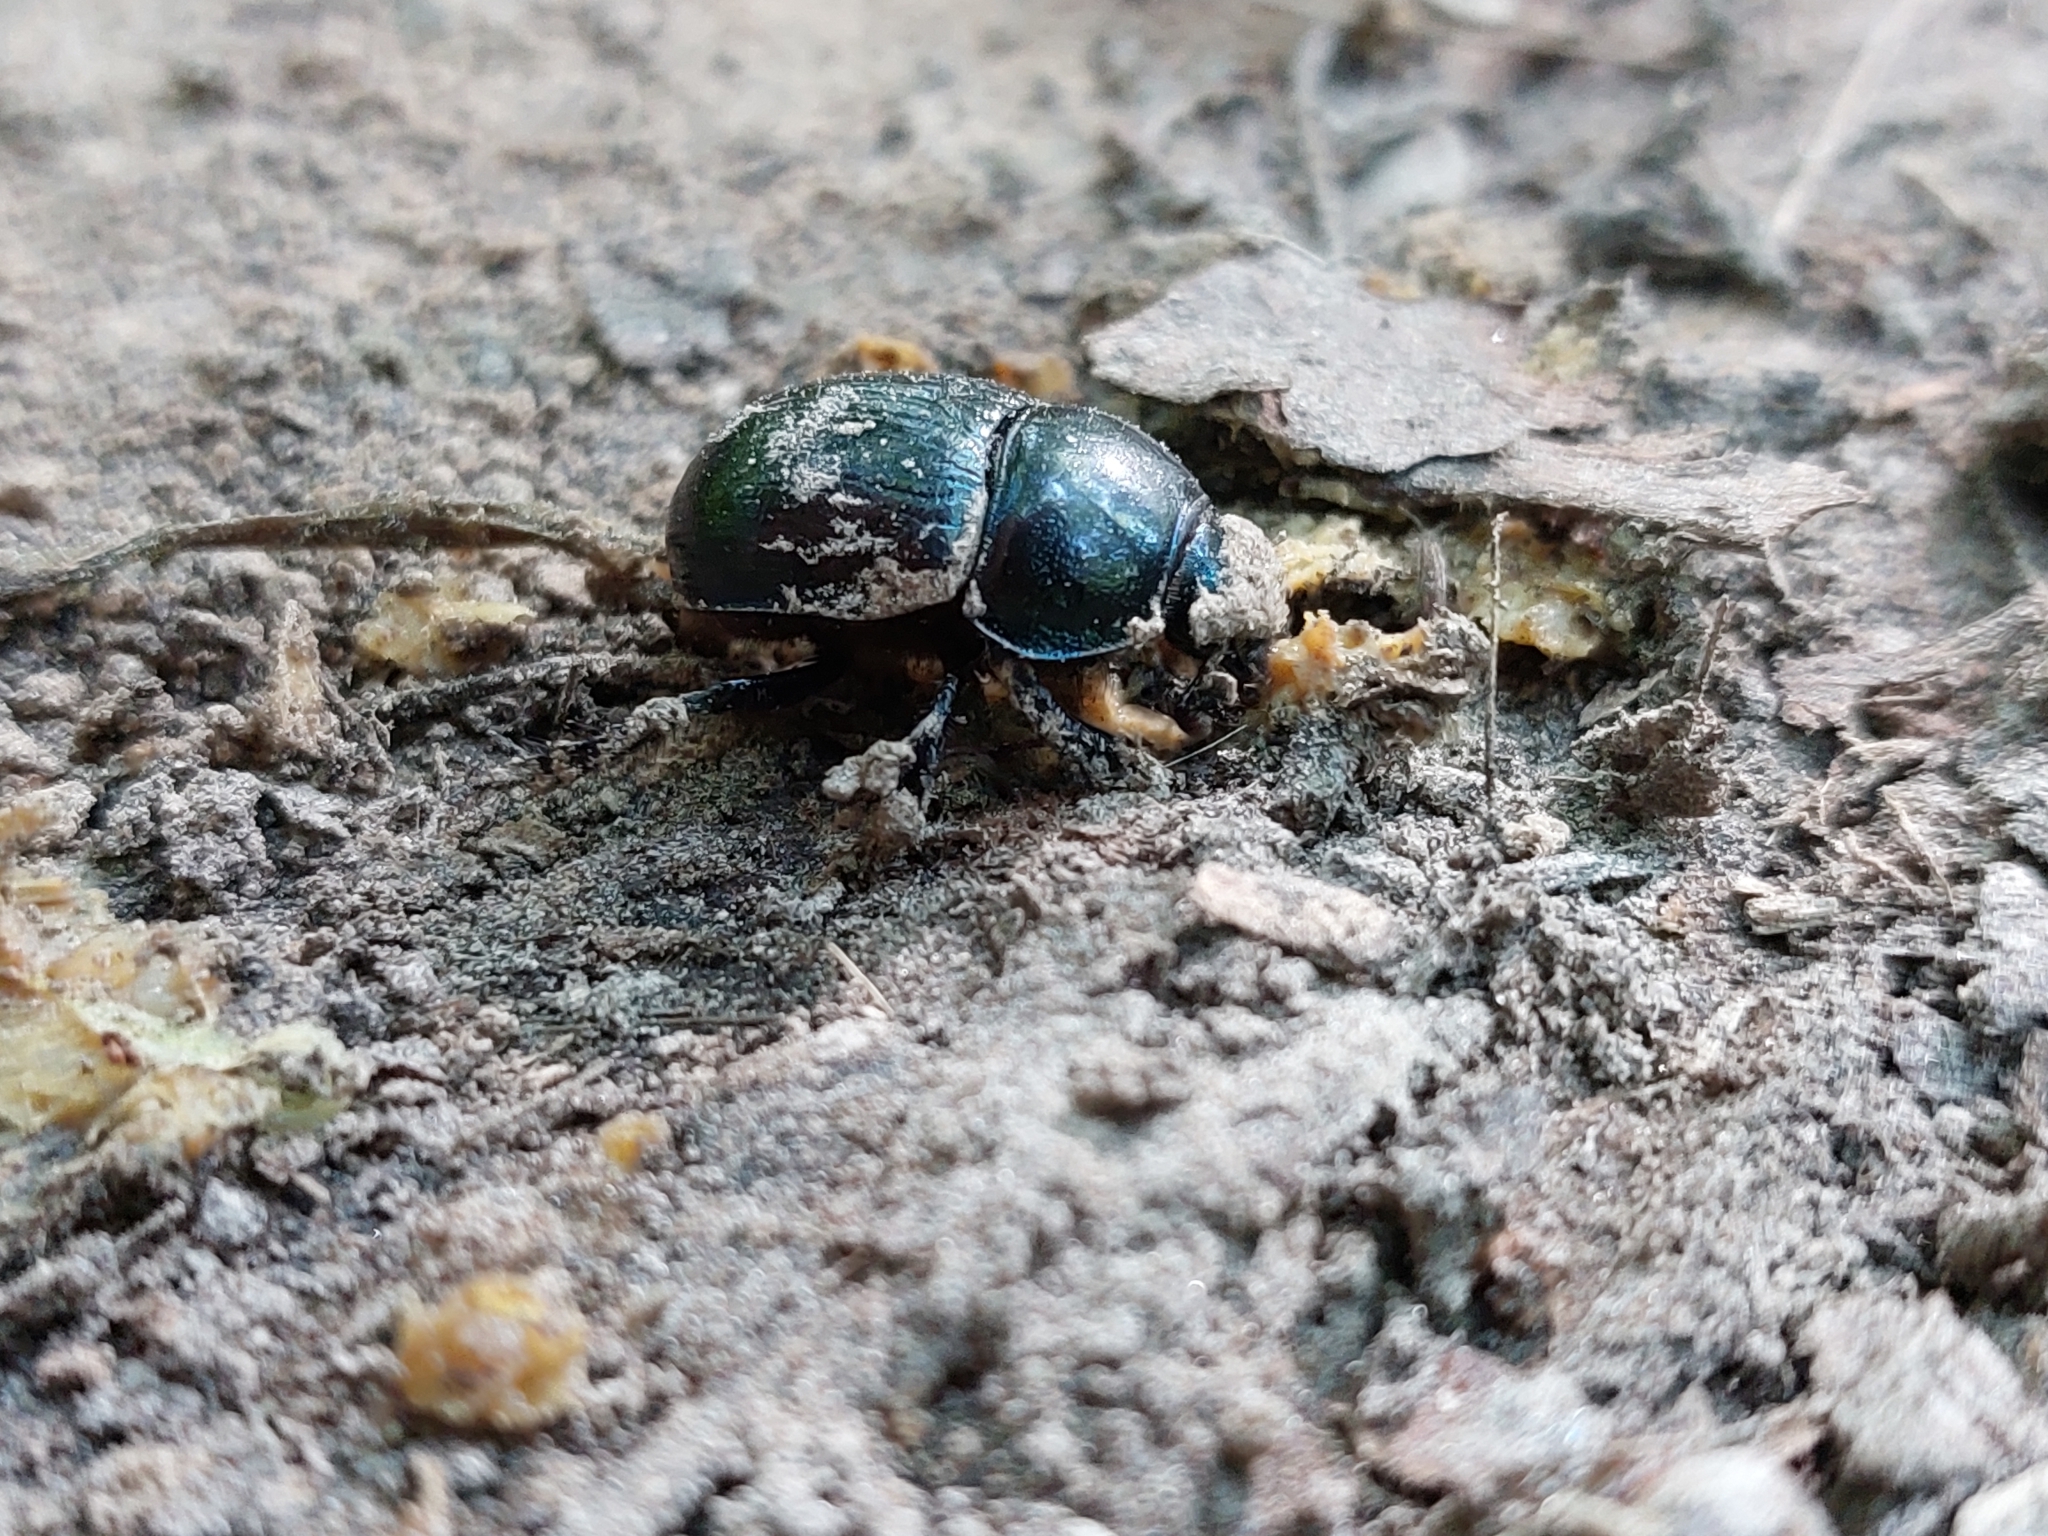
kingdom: Animalia
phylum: Arthropoda
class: Insecta
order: Coleoptera
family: Geotrupidae
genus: Anoplotrupes
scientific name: Anoplotrupes stercorosus
